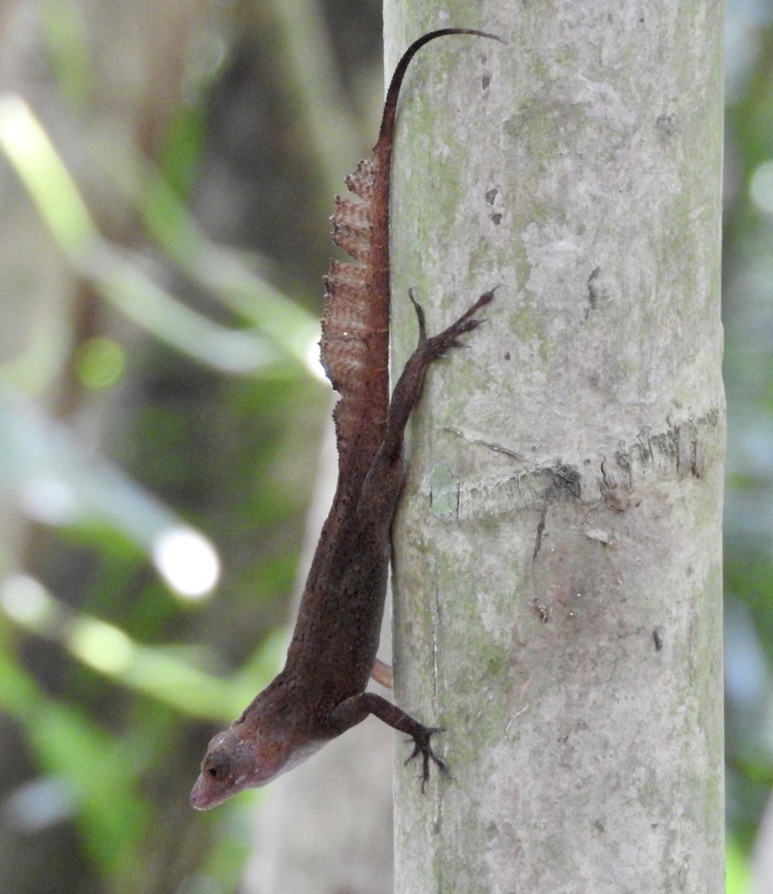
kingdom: Animalia
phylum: Chordata
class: Squamata
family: Dactyloidae
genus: Anolis
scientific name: Anolis cristatellus
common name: Crested anole
